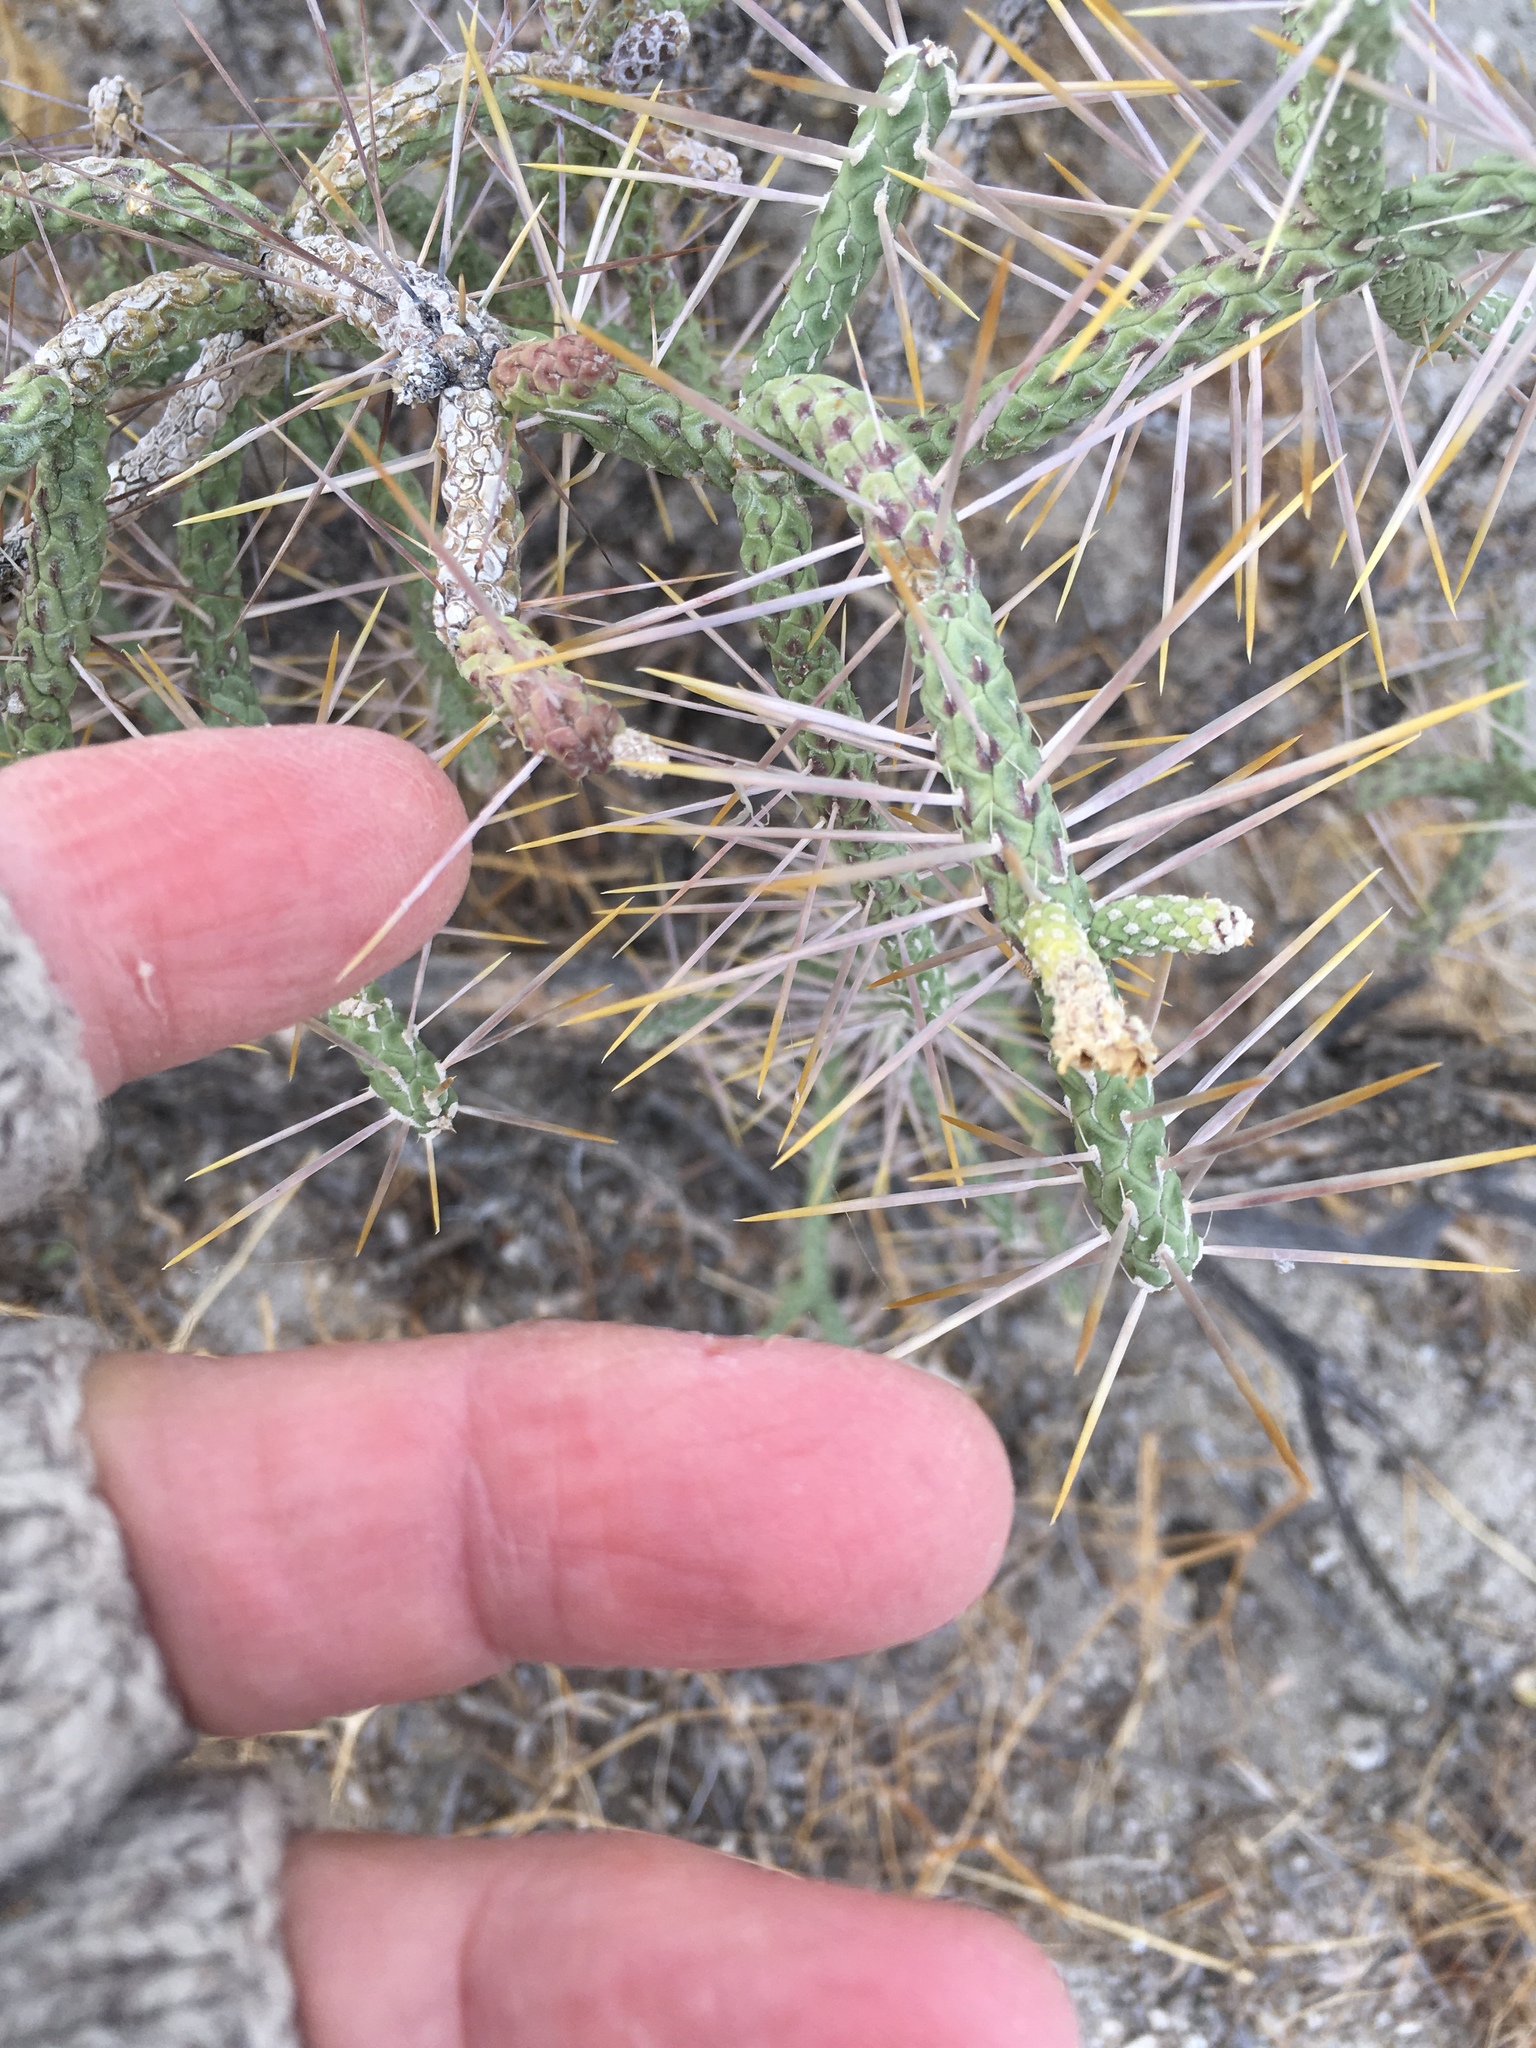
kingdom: Plantae
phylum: Tracheophyta
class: Magnoliopsida
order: Caryophyllales
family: Cactaceae
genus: Cylindropuntia
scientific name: Cylindropuntia ramosissima
